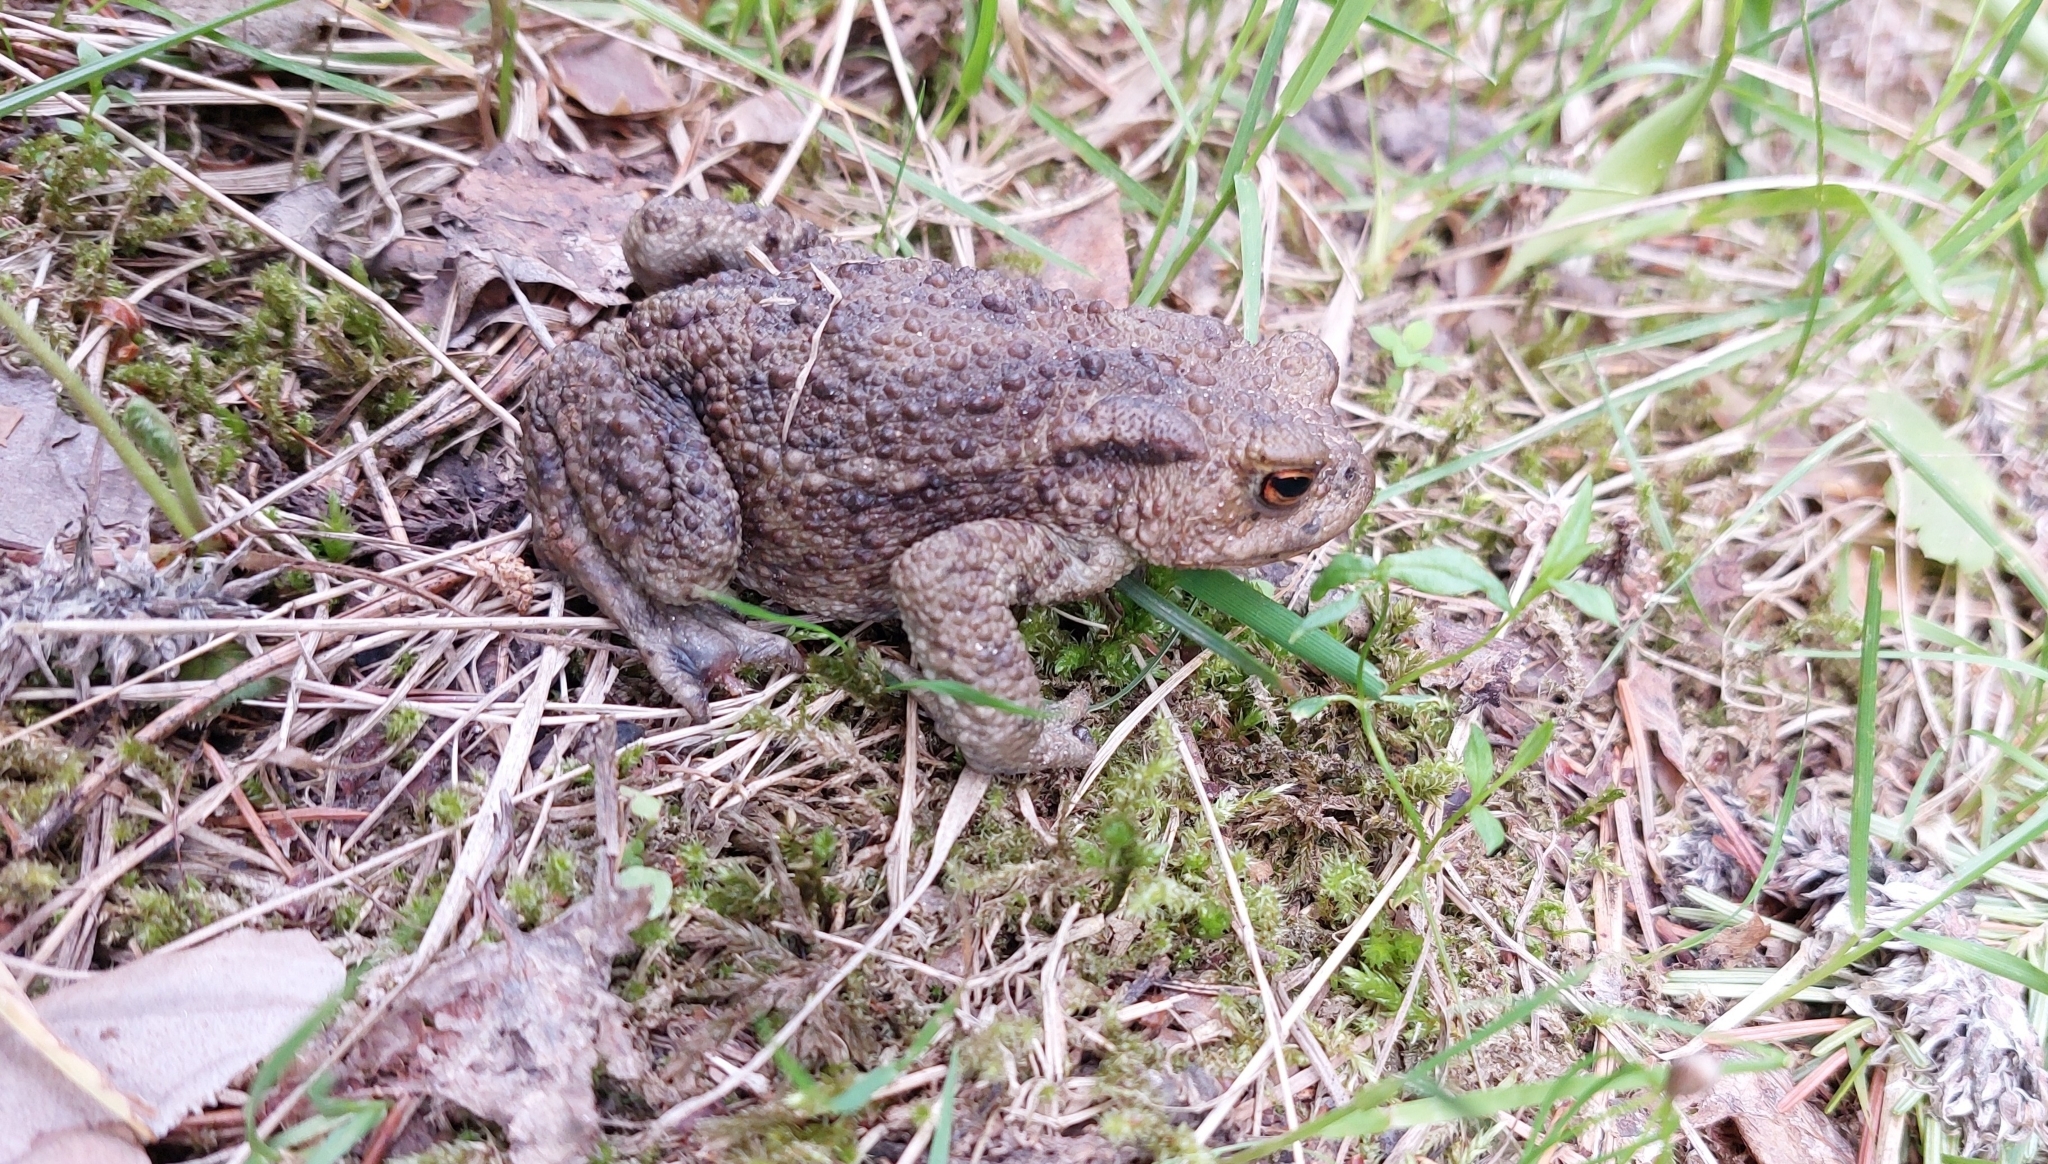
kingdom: Animalia
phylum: Chordata
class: Amphibia
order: Anura
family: Bufonidae
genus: Bufo
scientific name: Bufo bufo
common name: Common toad
